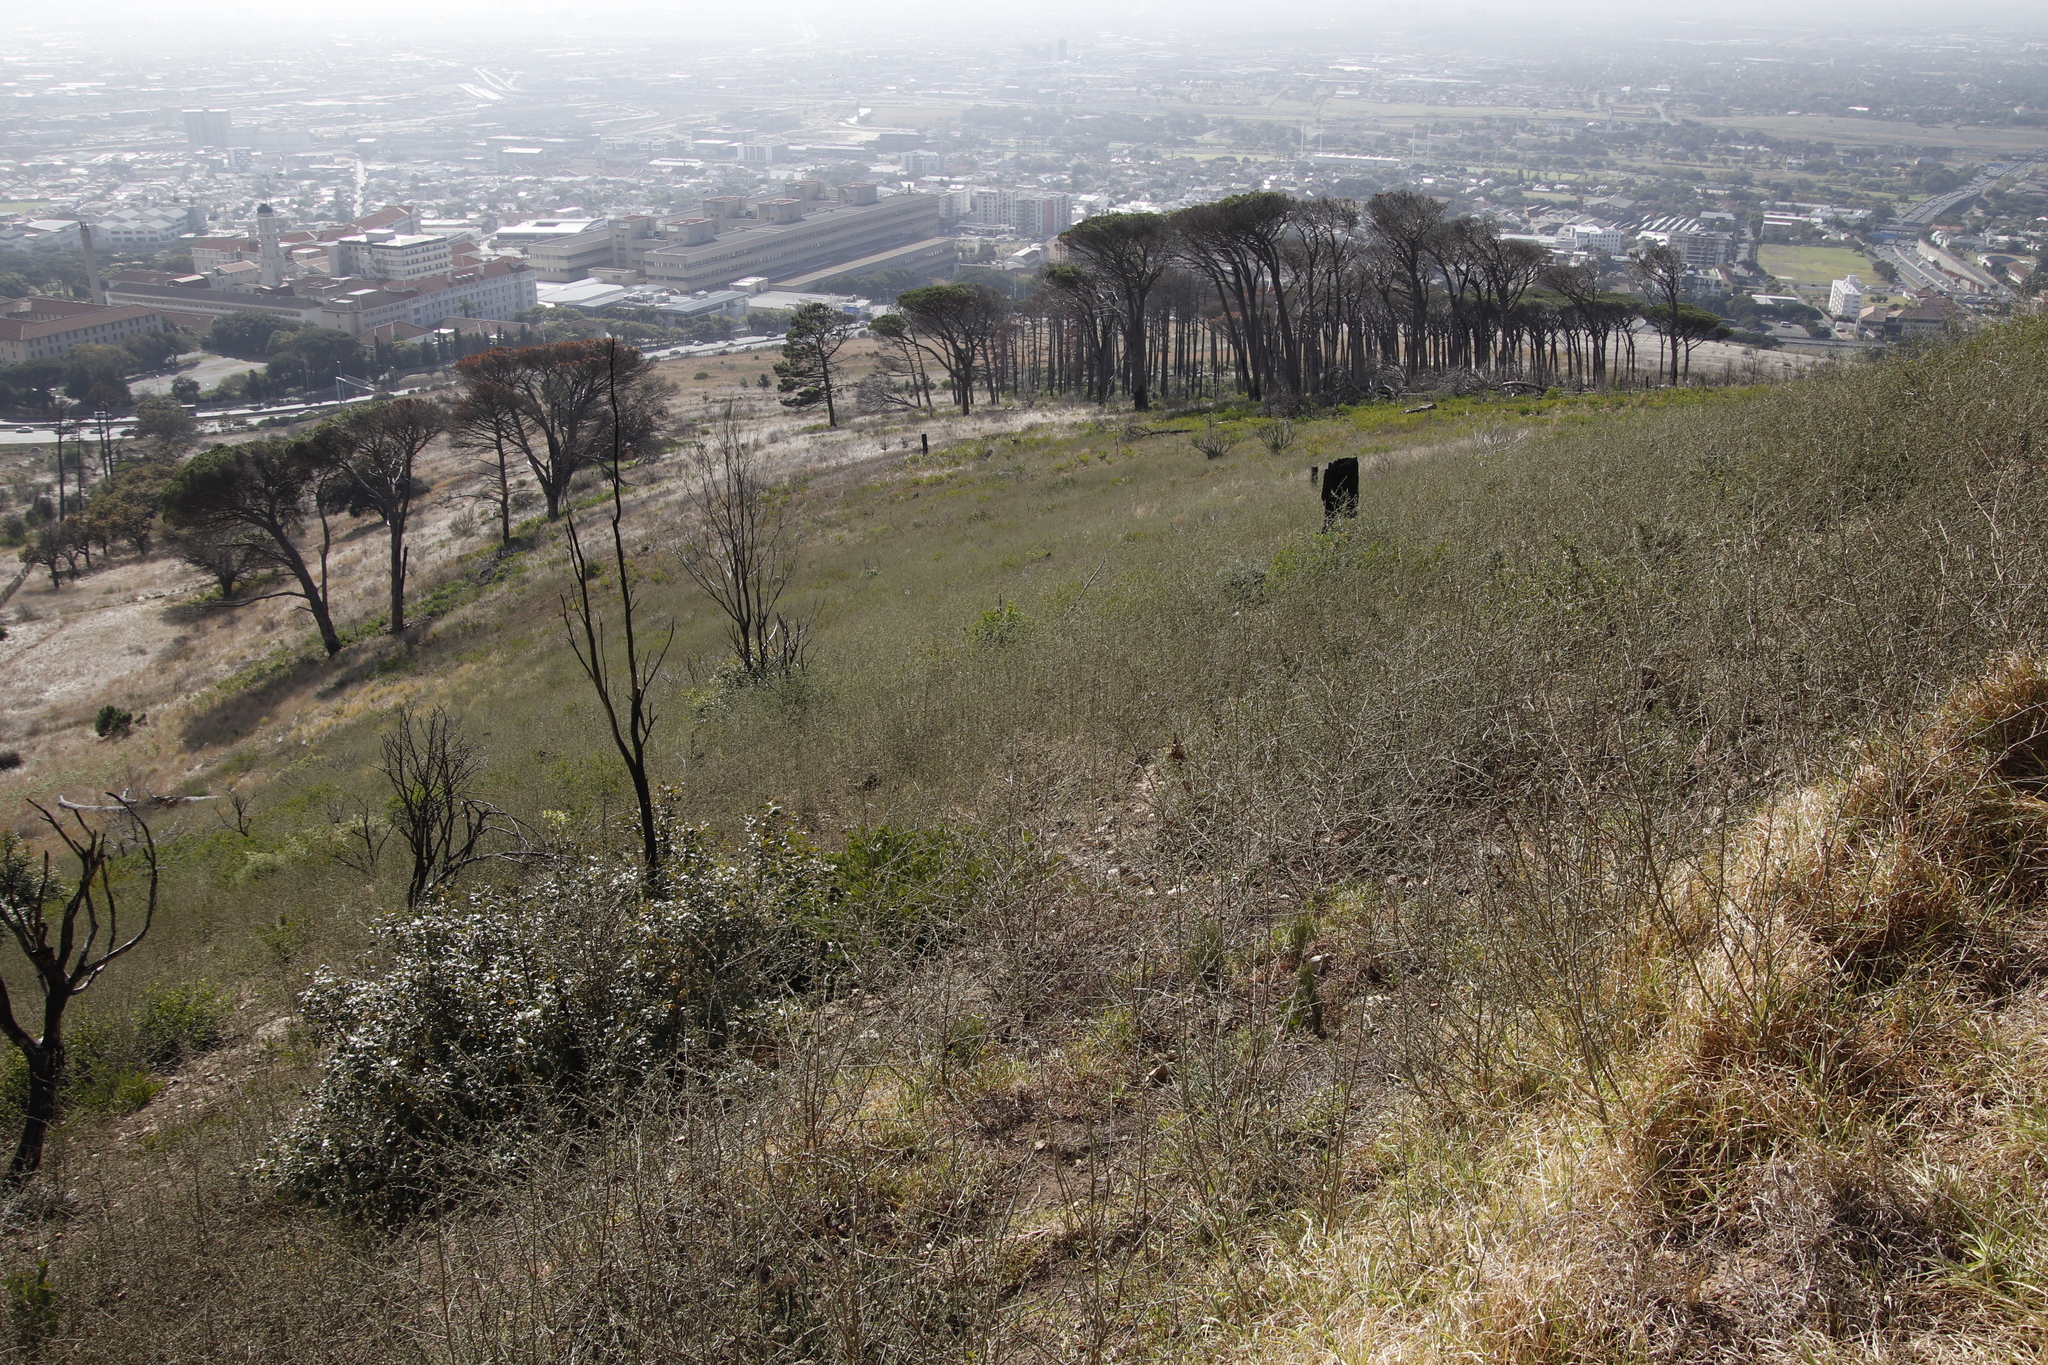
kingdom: Plantae
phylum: Tracheophyta
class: Magnoliopsida
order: Fabales
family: Fabaceae
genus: Psoralea
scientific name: Psoralea hirta
